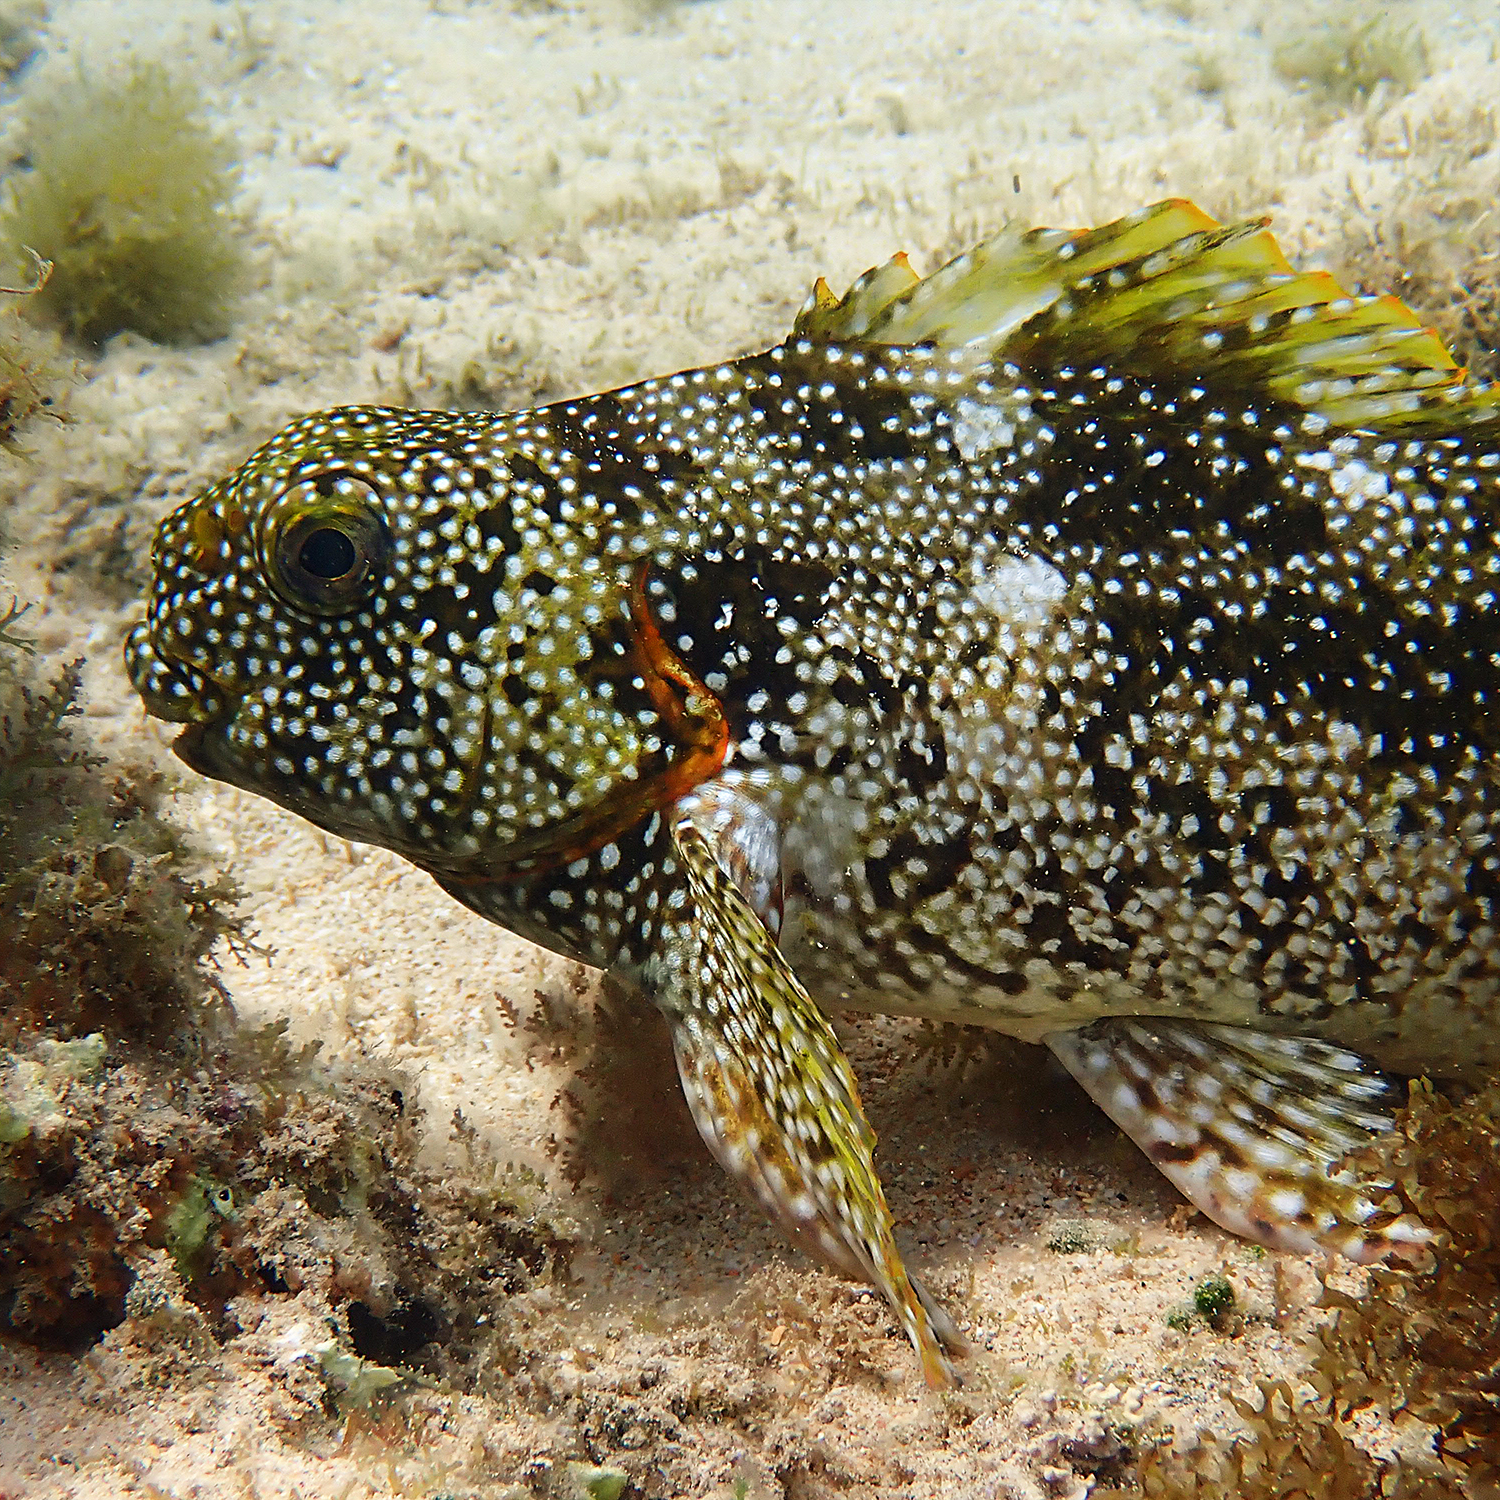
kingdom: Animalia
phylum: Chordata
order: Perciformes
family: Aplodactylidae
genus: Aplodactylus
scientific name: Aplodactylus etheridgii
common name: Notchheaded marblefish
